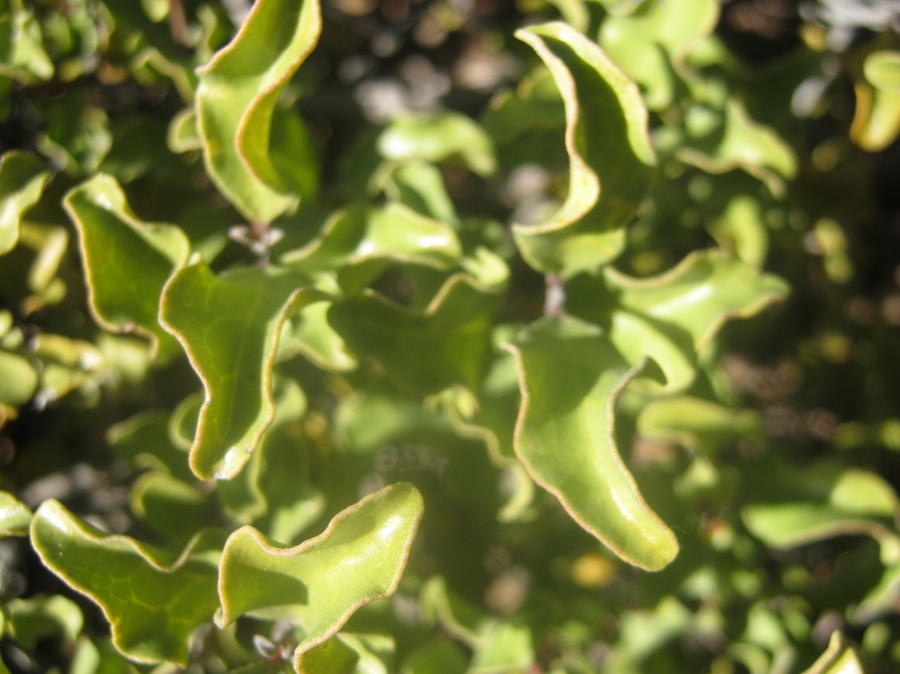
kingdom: Plantae
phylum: Tracheophyta
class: Magnoliopsida
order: Ericales
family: Ebenaceae
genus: Euclea
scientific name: Euclea undulata
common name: Small-leaved guarri
